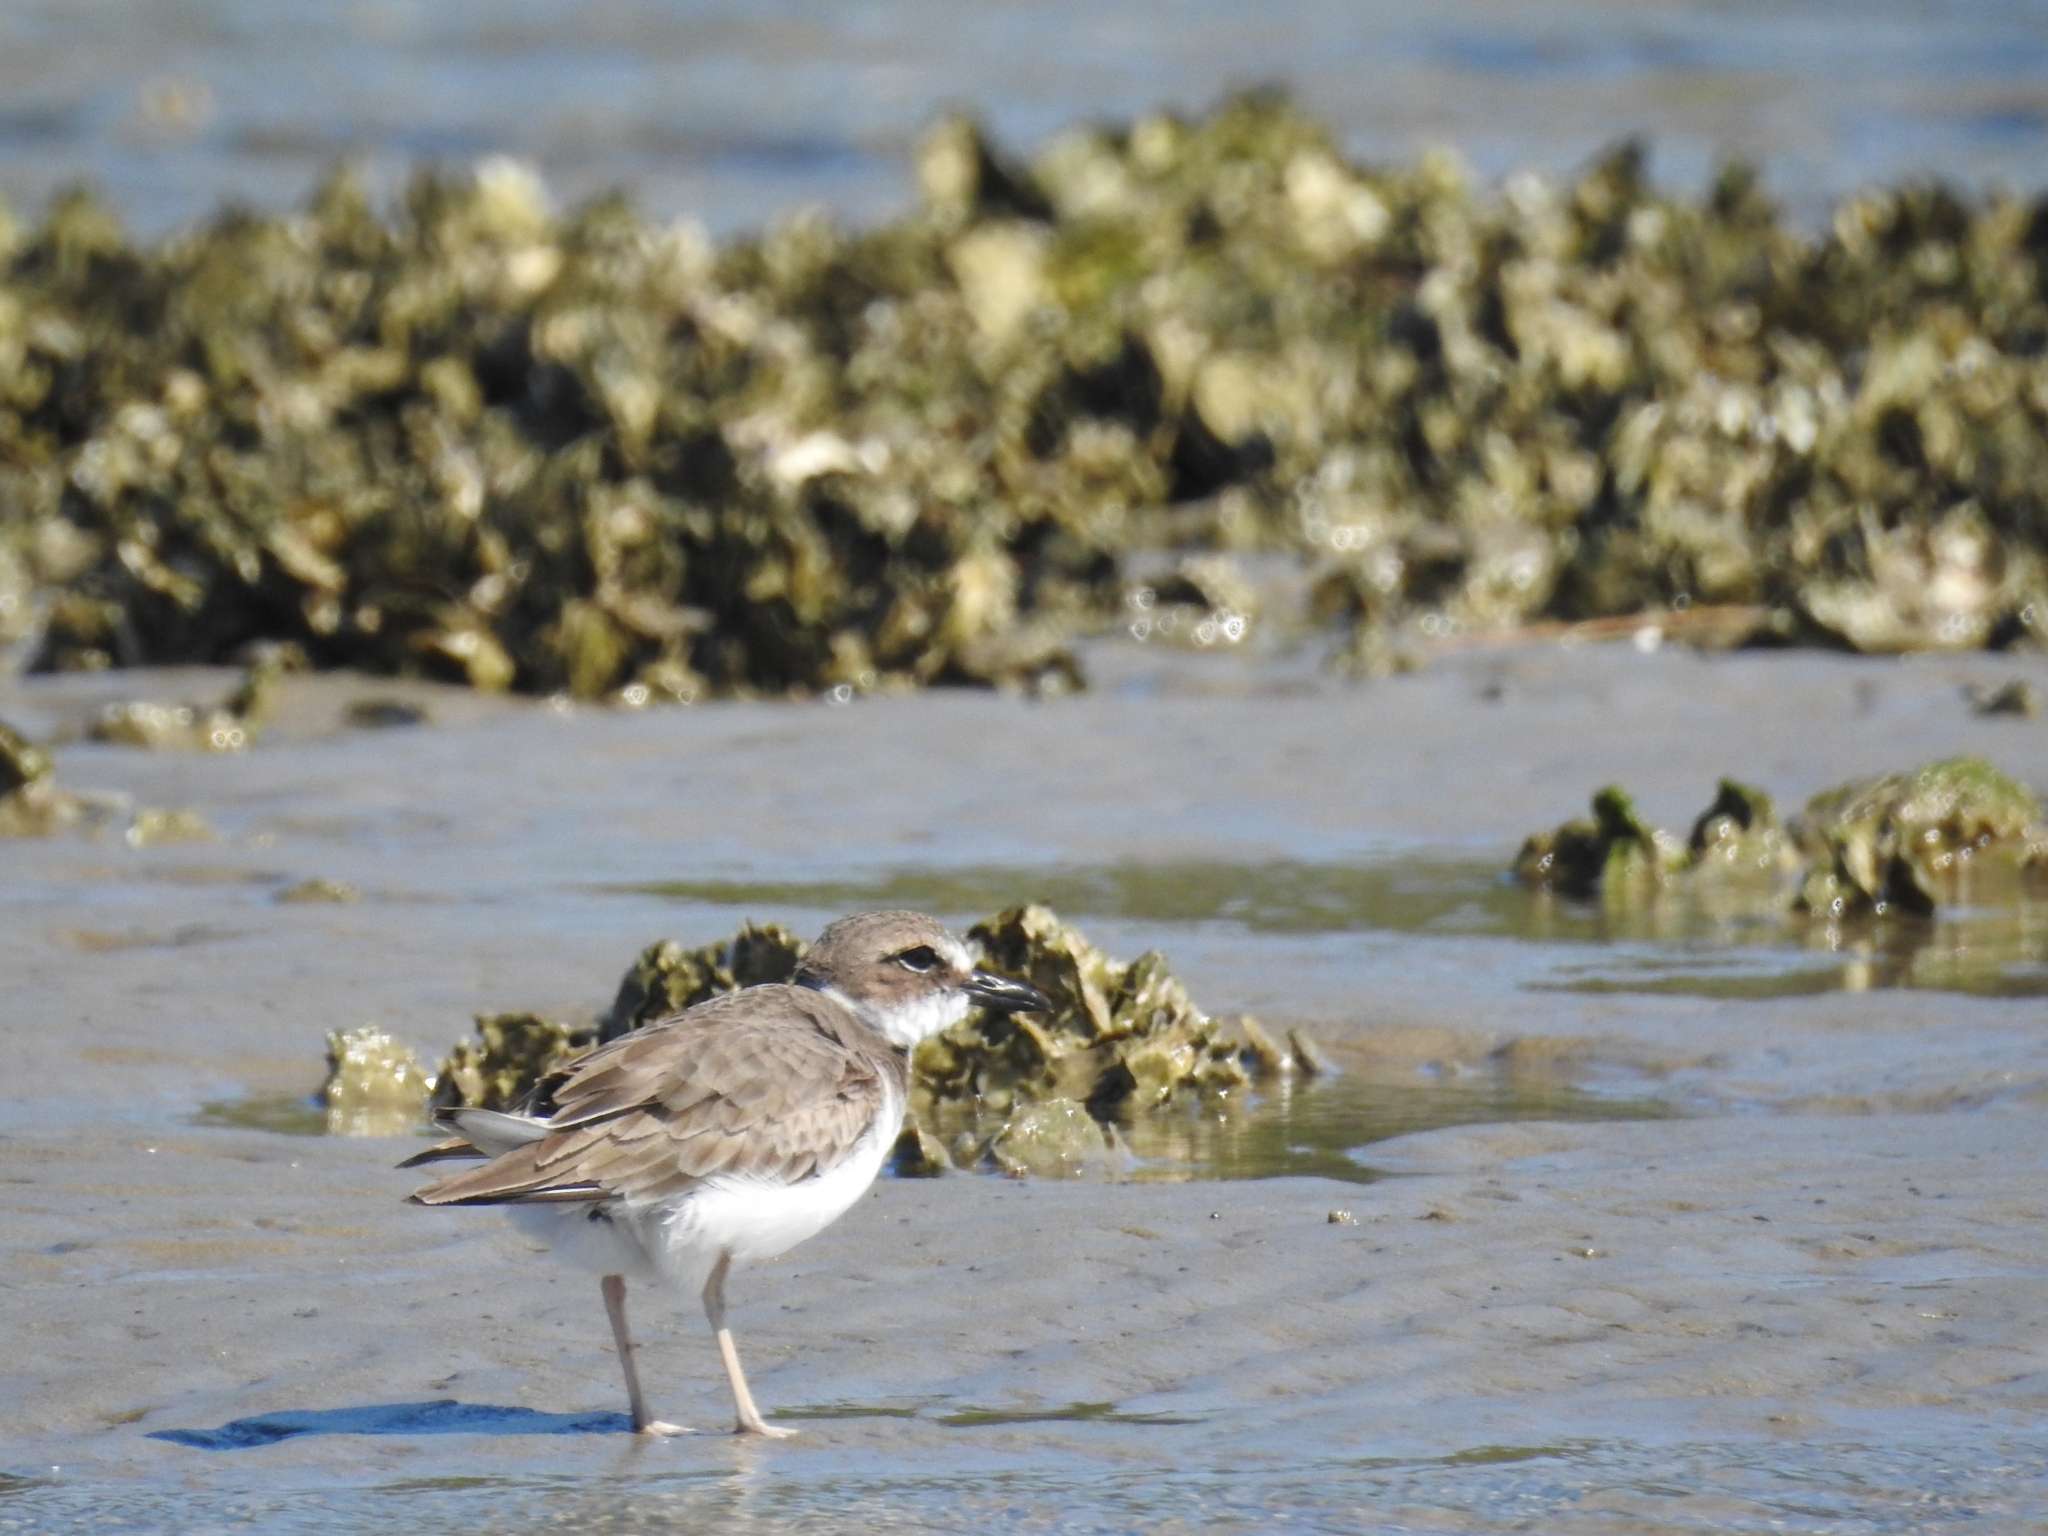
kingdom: Animalia
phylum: Chordata
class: Aves
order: Charadriiformes
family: Charadriidae
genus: Anarhynchus
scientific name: Anarhynchus
